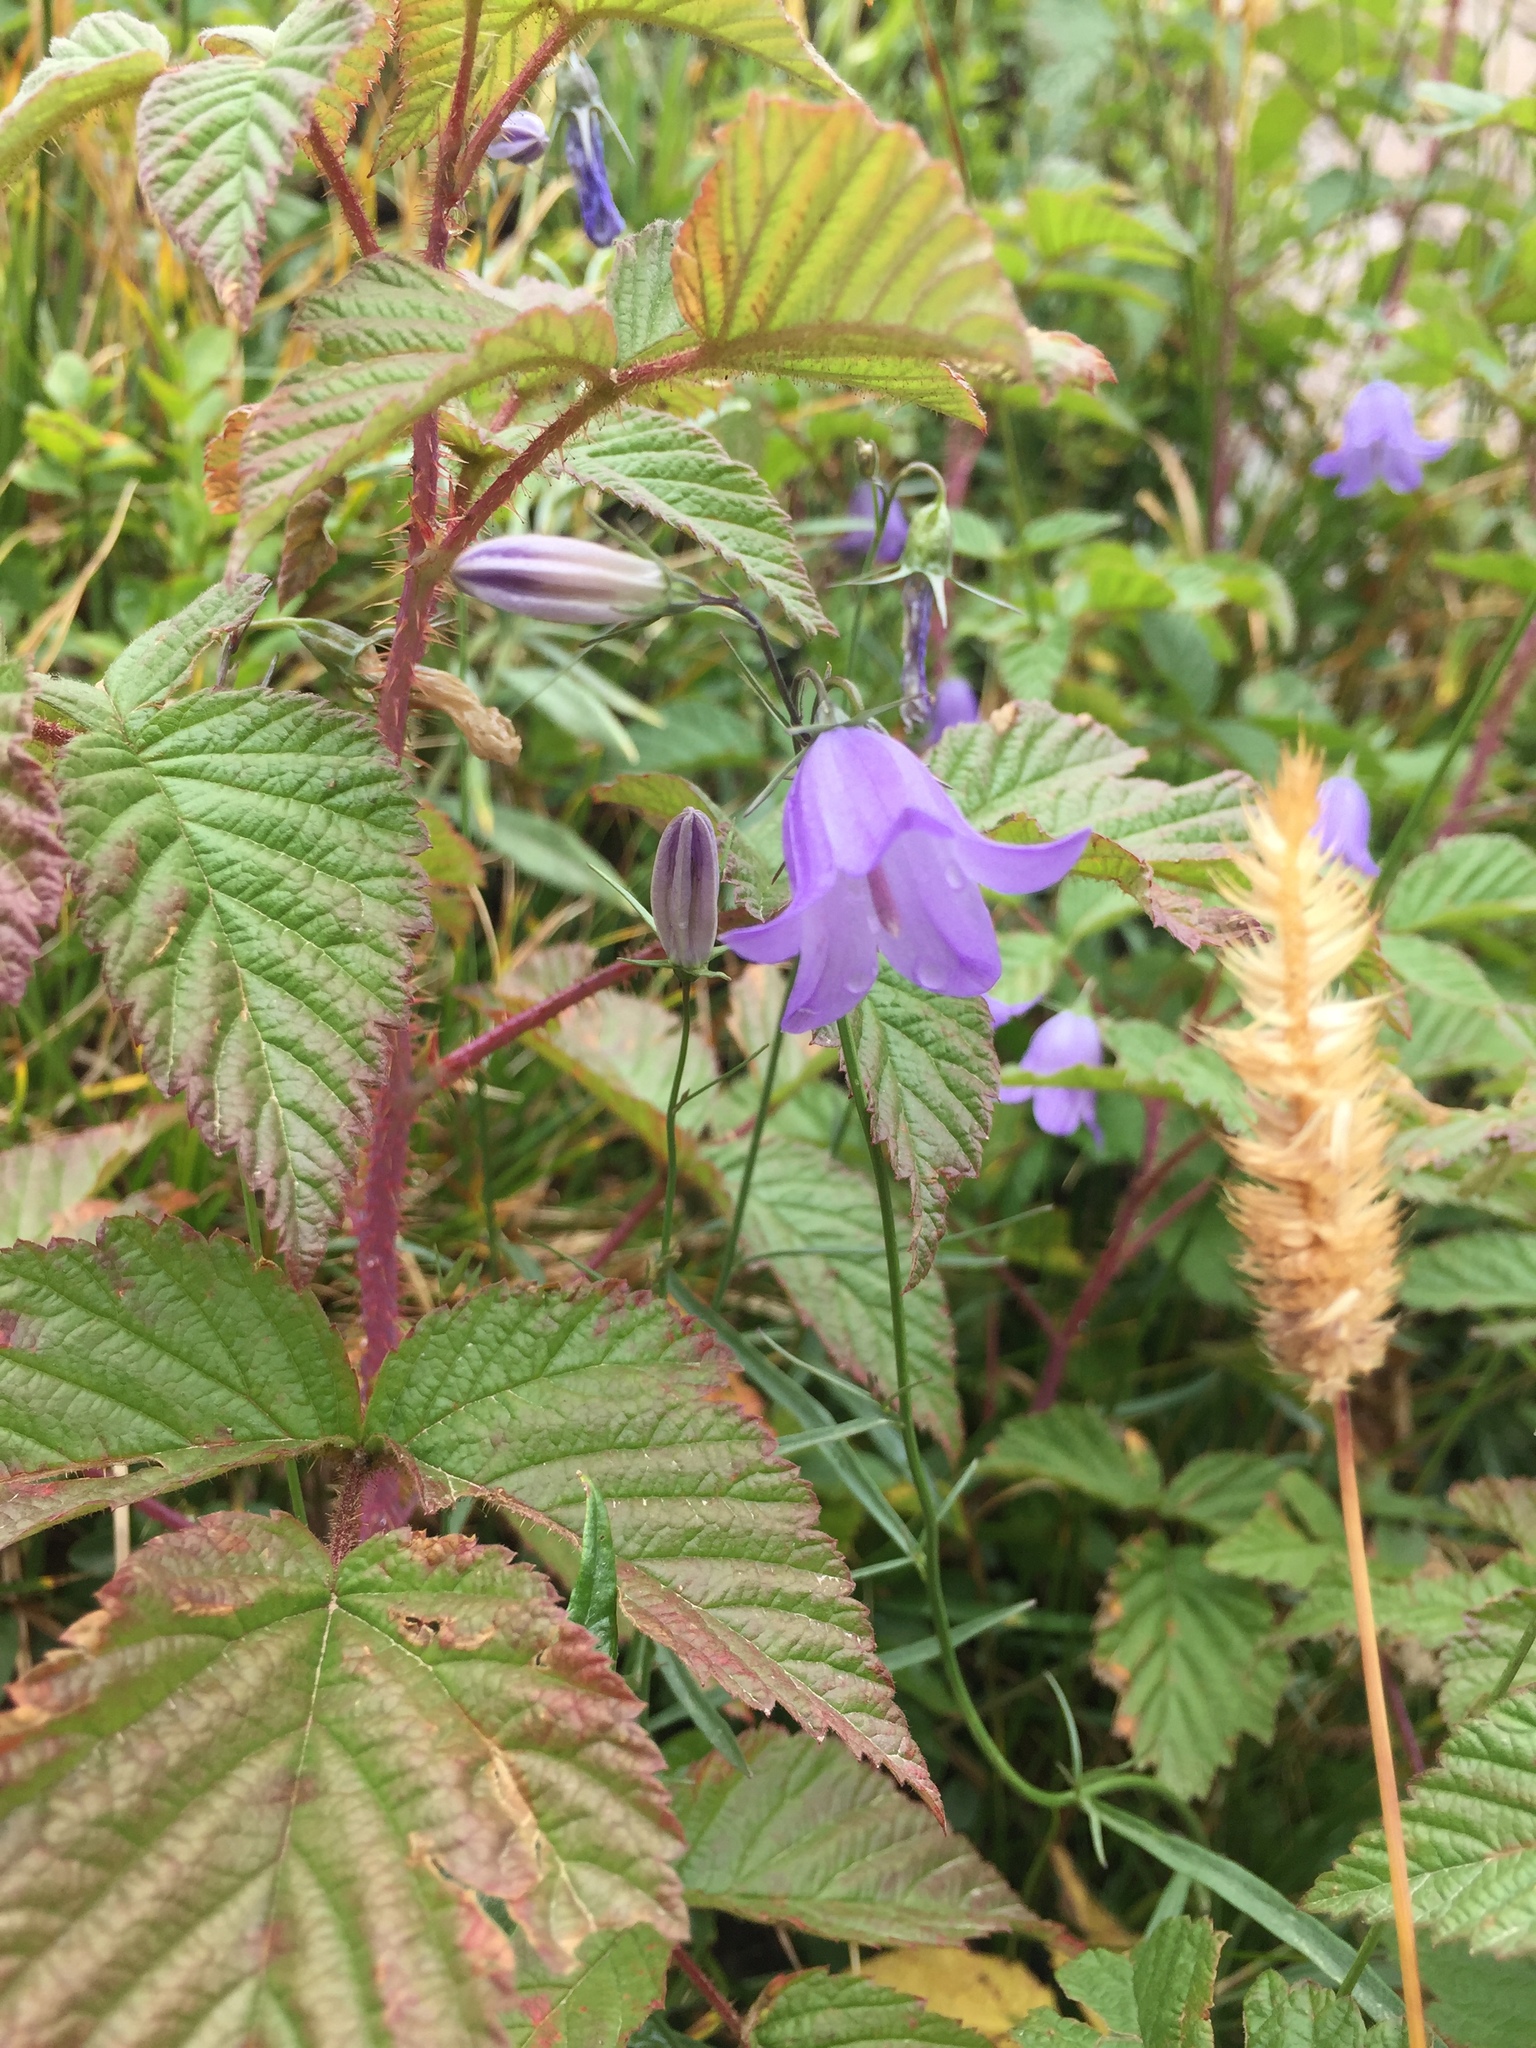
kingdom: Plantae
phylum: Tracheophyta
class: Magnoliopsida
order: Asterales
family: Campanulaceae
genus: Campanula
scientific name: Campanula petiolata
